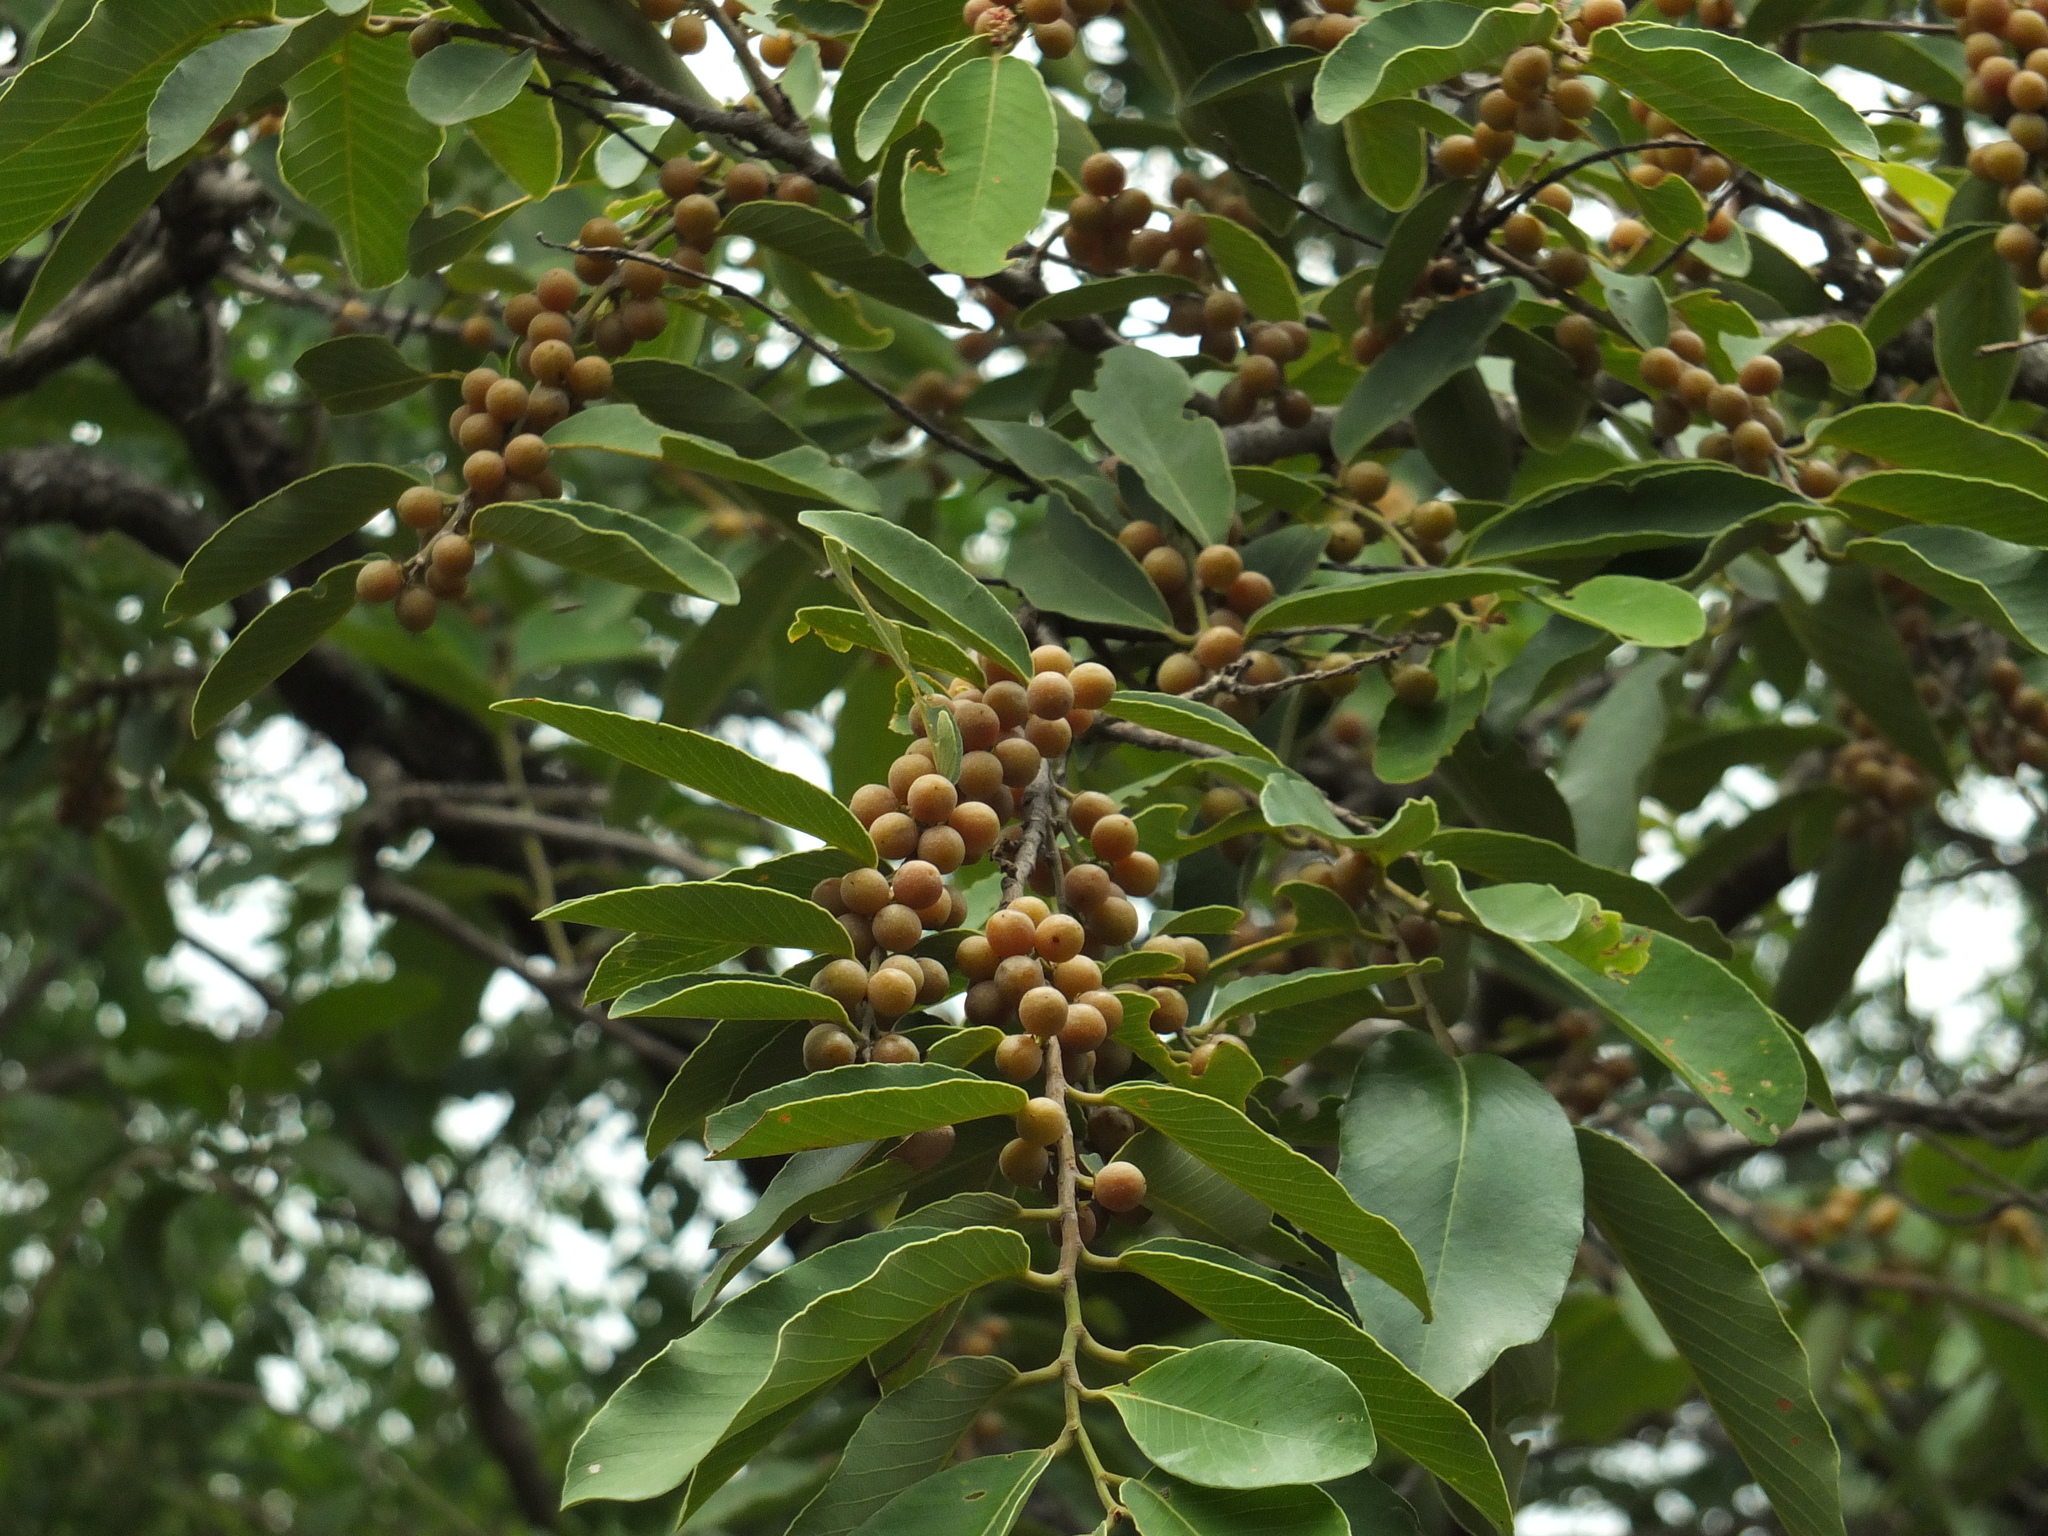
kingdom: Plantae
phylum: Tracheophyta
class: Magnoliopsida
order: Malpighiales
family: Phyllanthaceae
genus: Bridelia
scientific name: Bridelia retusa
